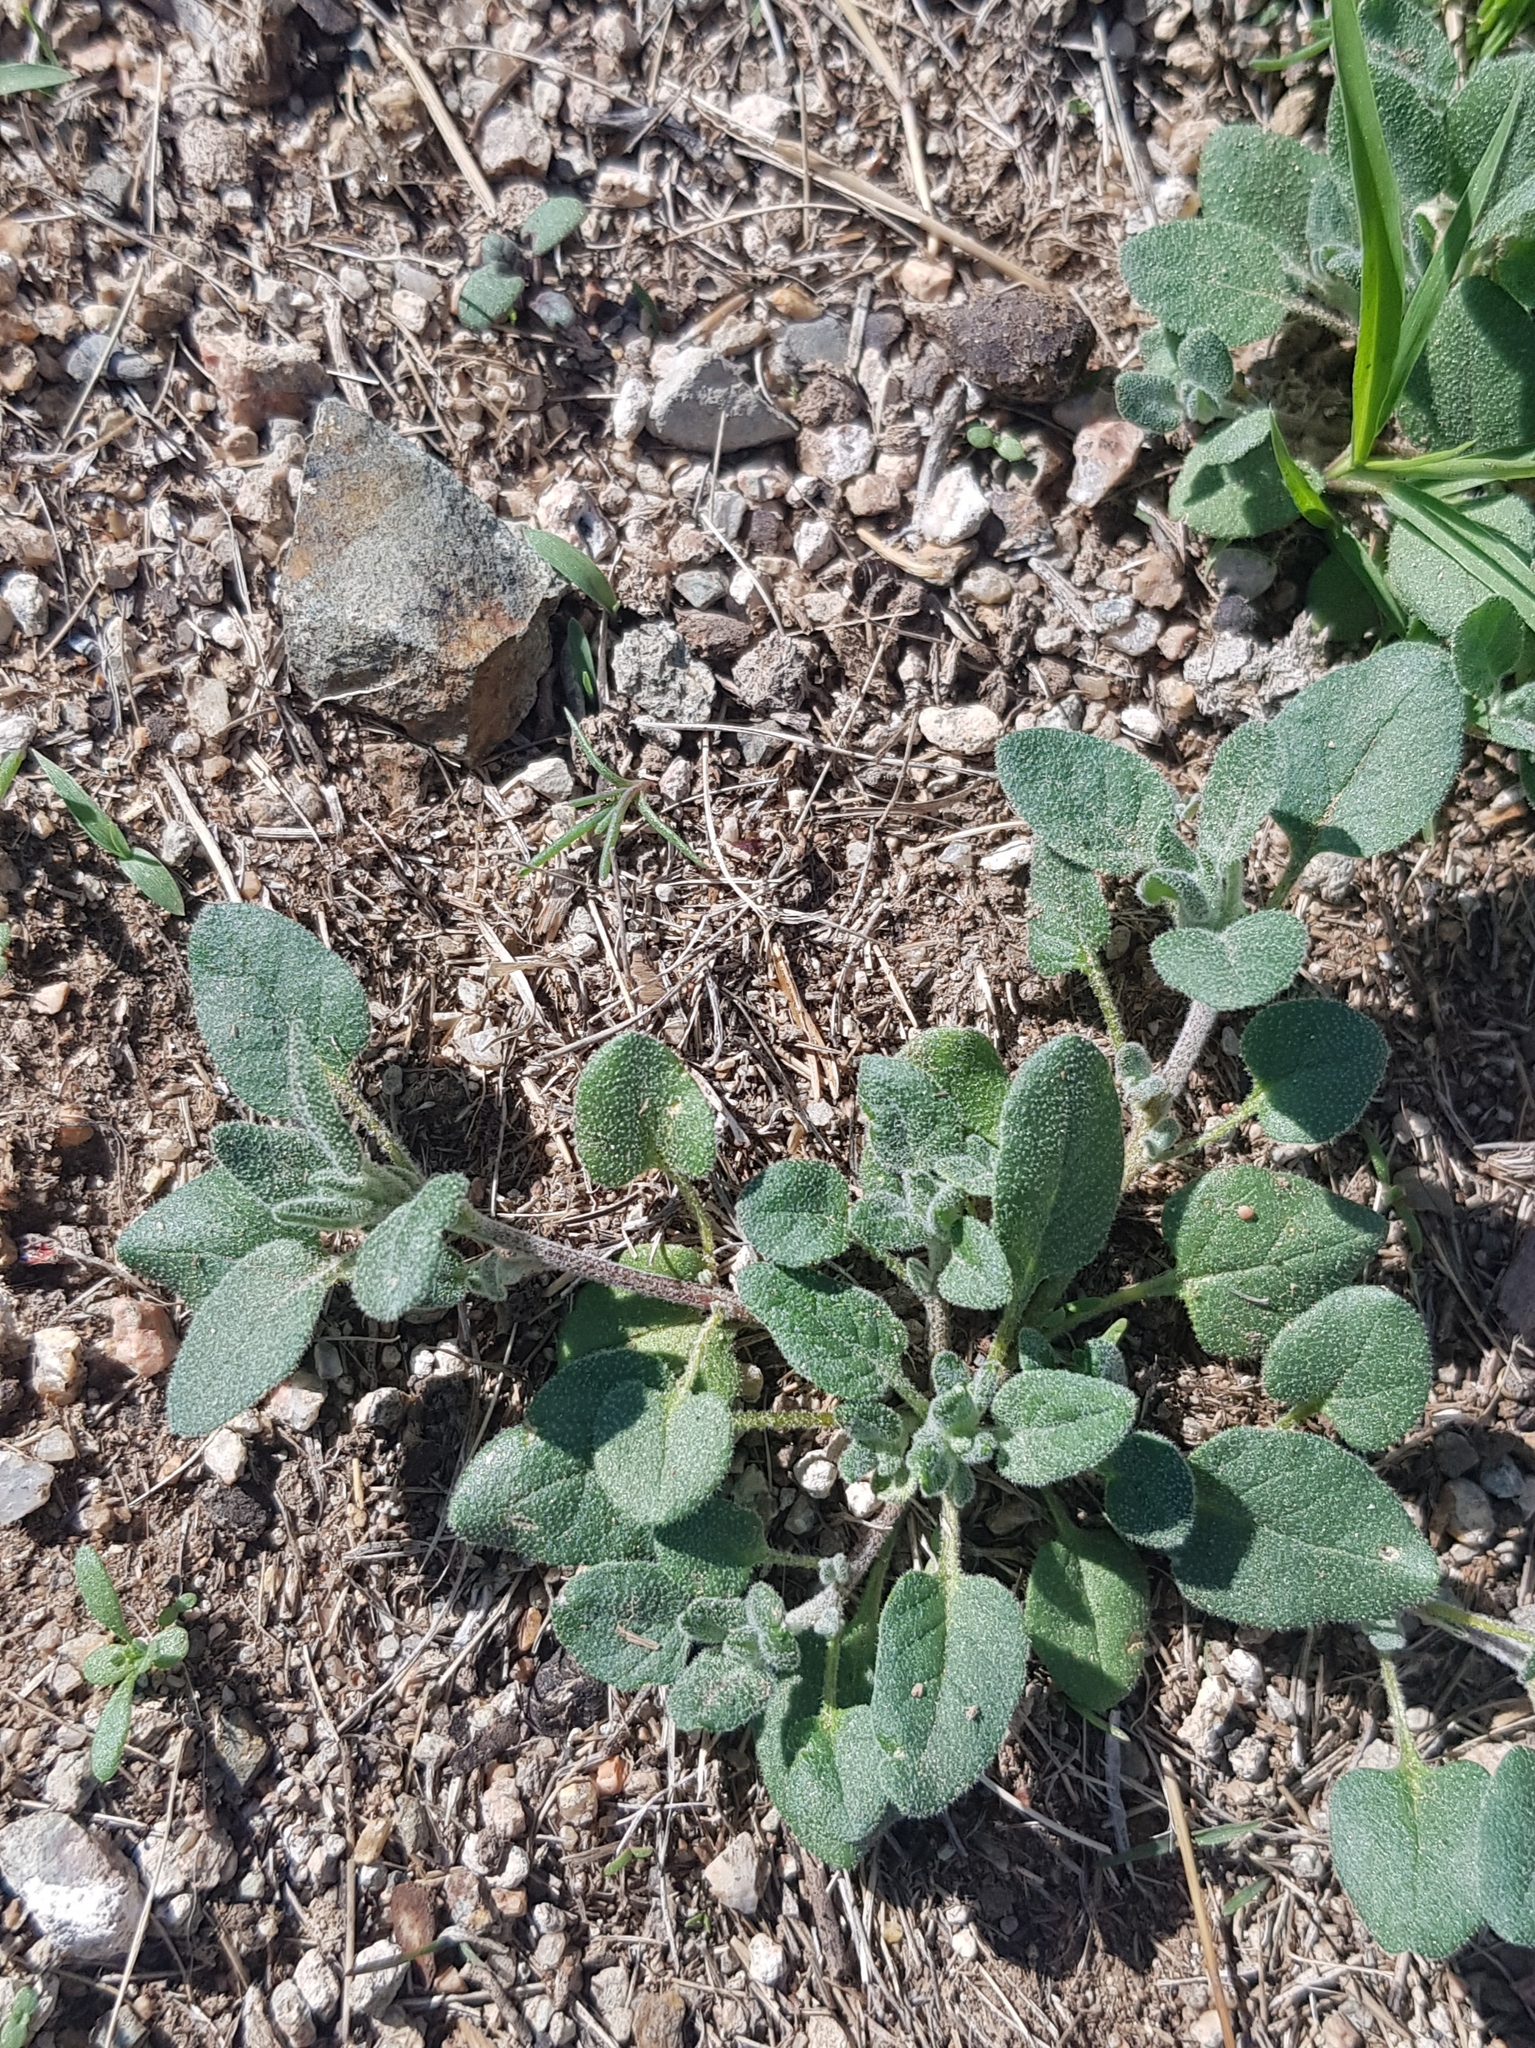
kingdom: Plantae
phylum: Tracheophyta
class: Magnoliopsida
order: Caryophyllales
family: Amaranthaceae
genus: Chenopodium
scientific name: Chenopodium acuminatum
